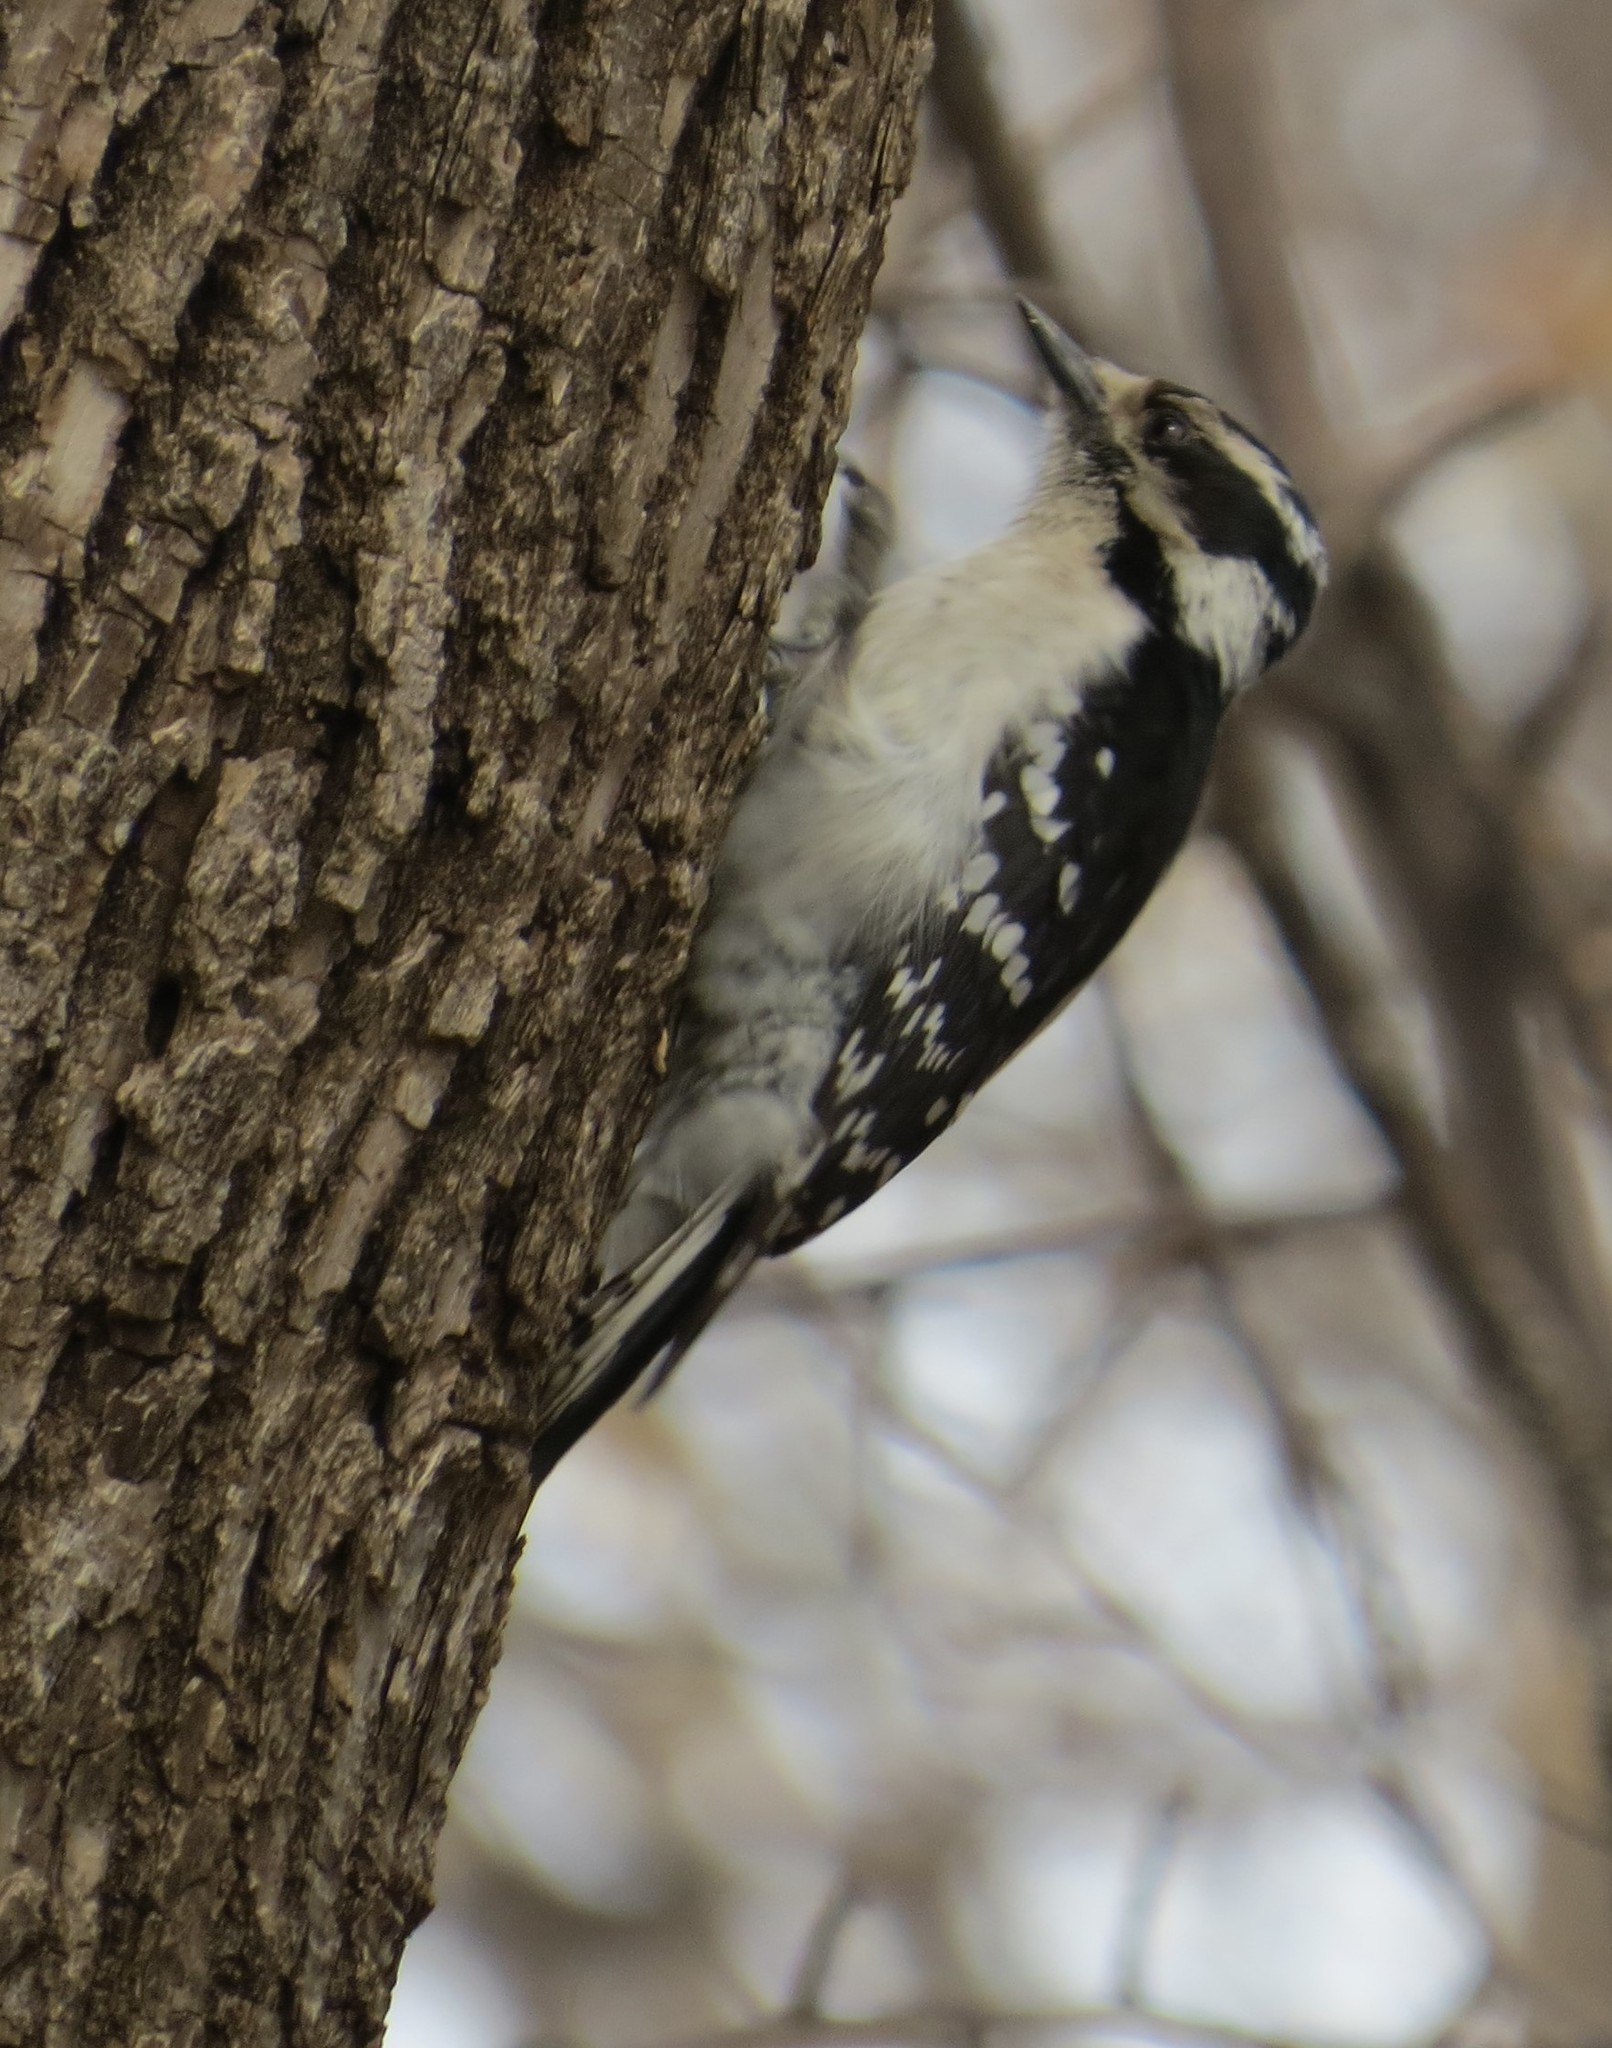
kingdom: Animalia
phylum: Chordata
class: Aves
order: Piciformes
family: Picidae
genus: Dryobates
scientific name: Dryobates pubescens
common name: Downy woodpecker
